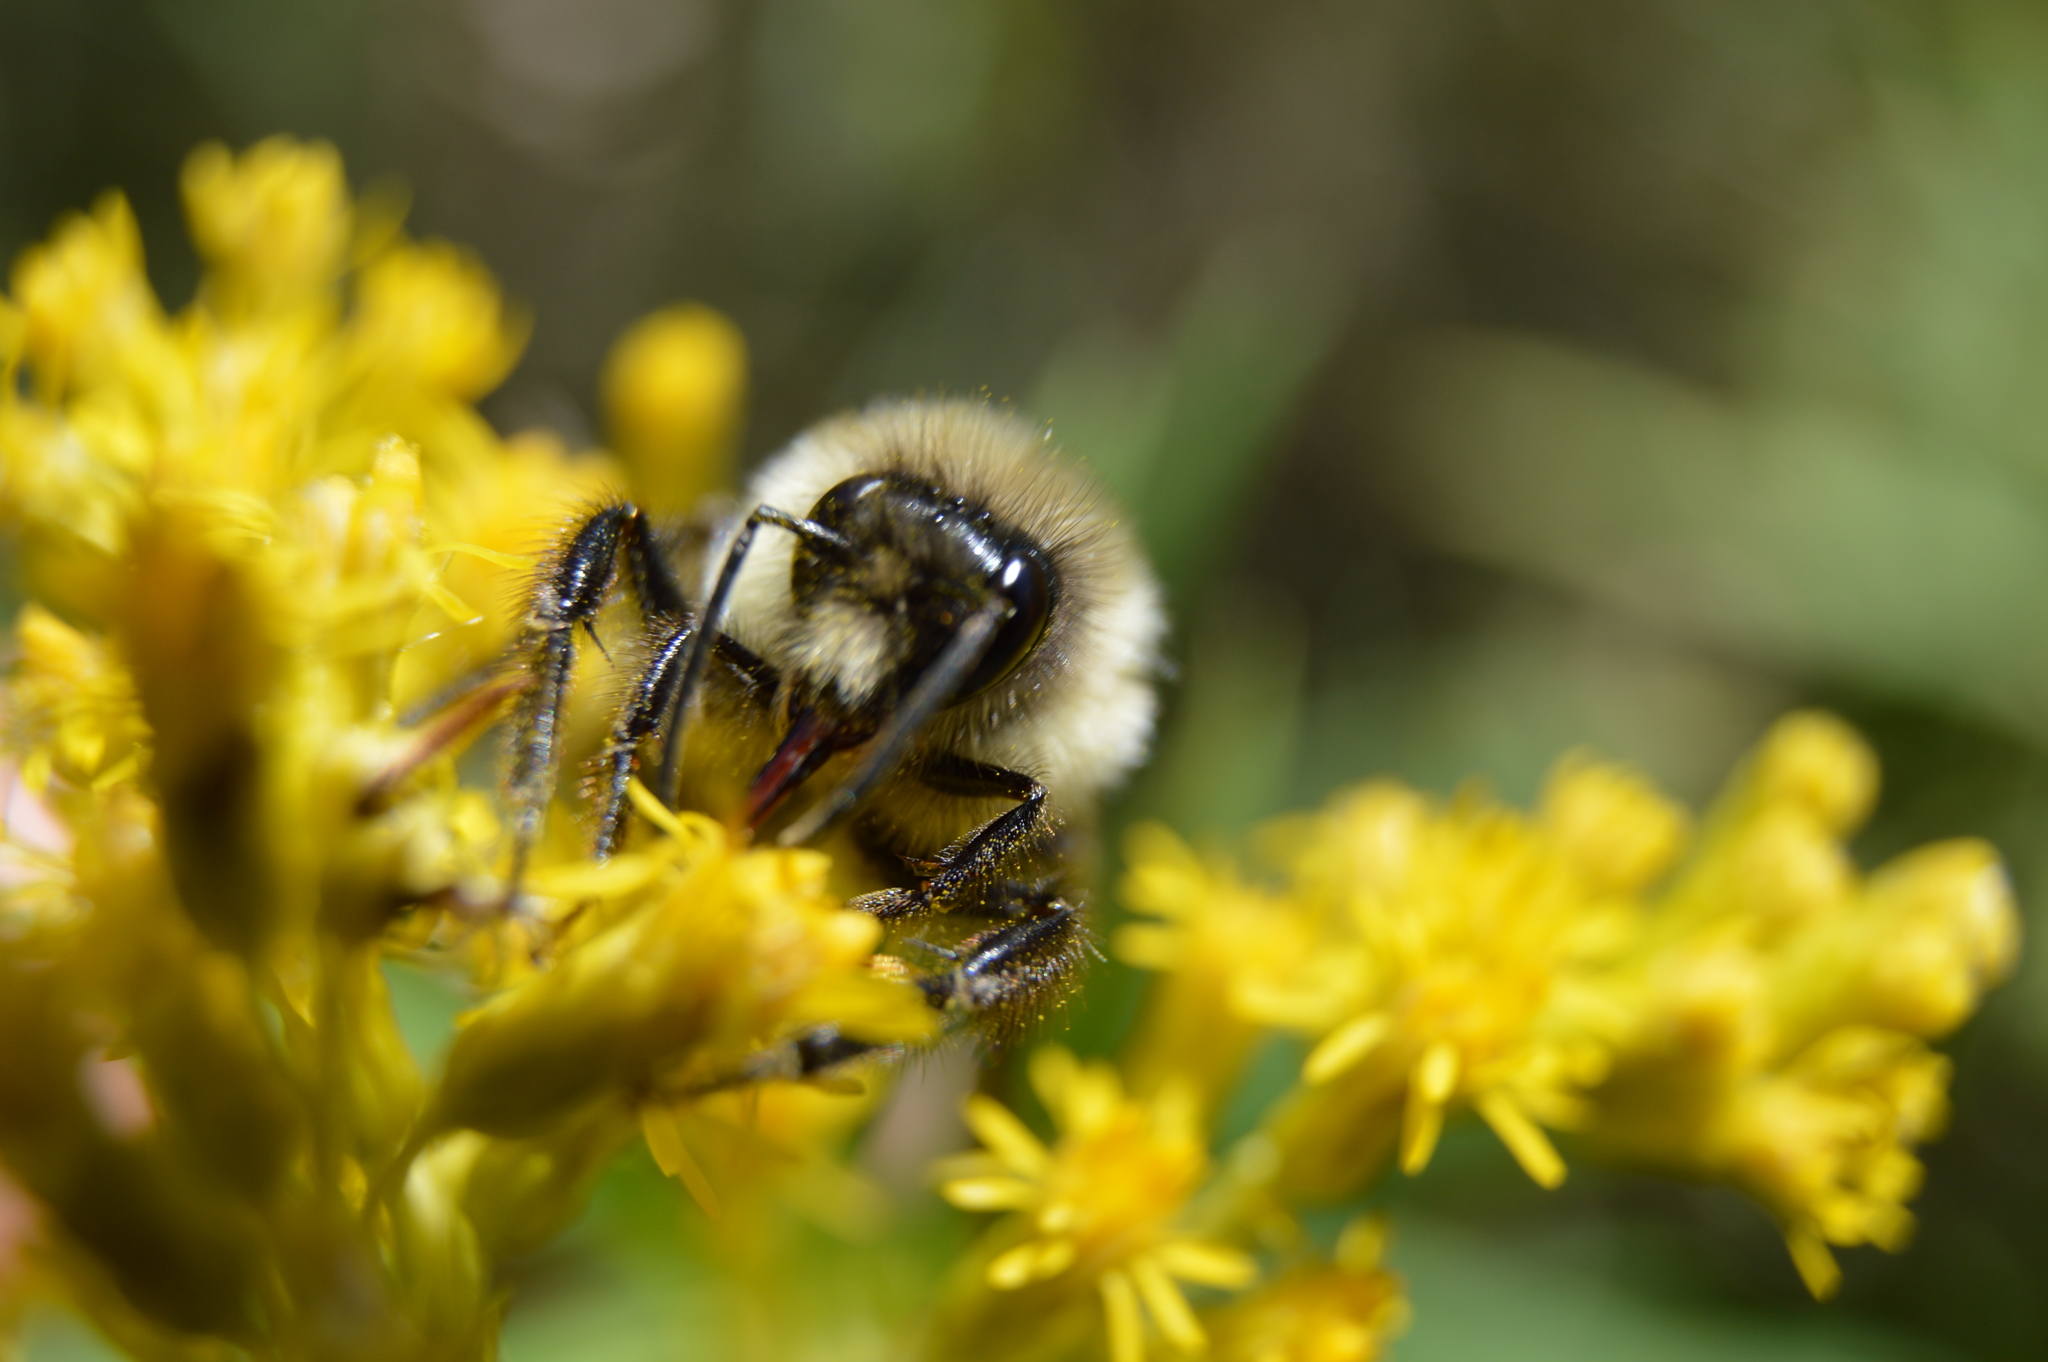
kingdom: Animalia
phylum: Arthropoda
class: Insecta
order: Hymenoptera
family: Apidae
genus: Bombus
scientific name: Bombus impatiens
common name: Common eastern bumble bee
